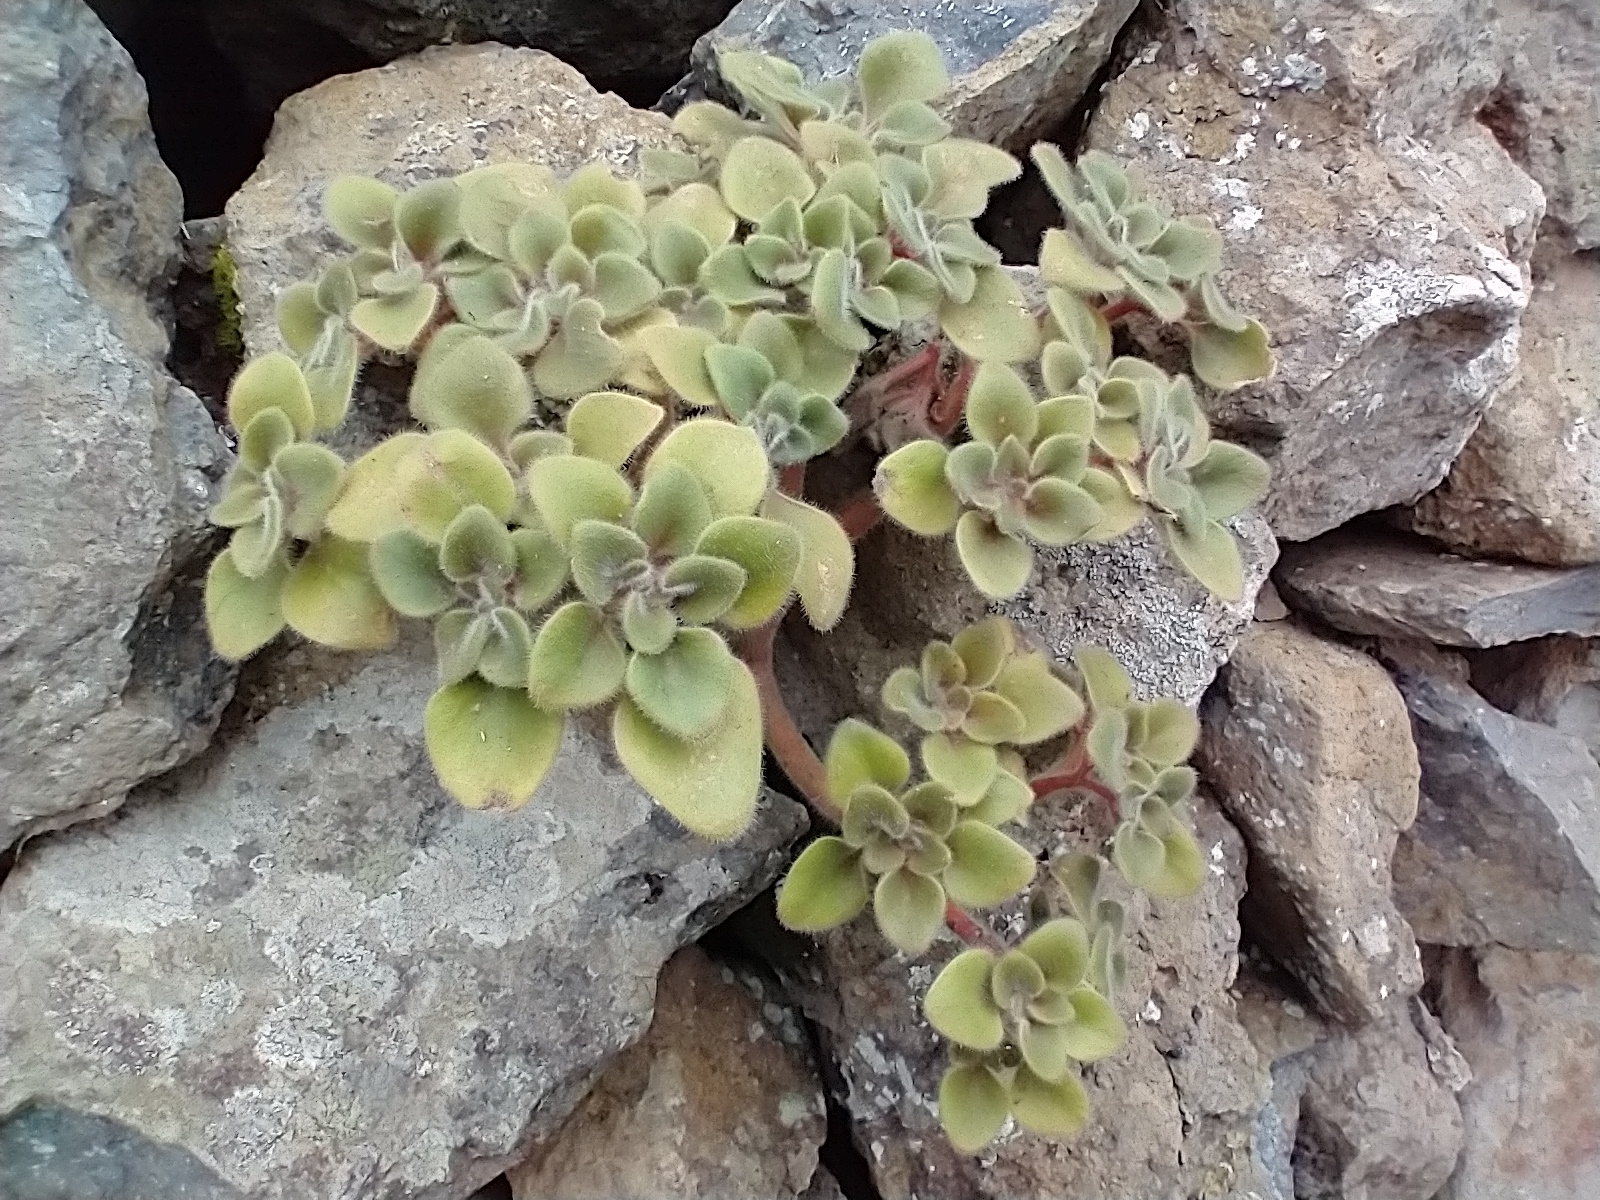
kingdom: Plantae
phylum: Tracheophyta
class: Magnoliopsida
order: Saxifragales
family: Crassulaceae
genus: Aichryson
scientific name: Aichryson laxum
